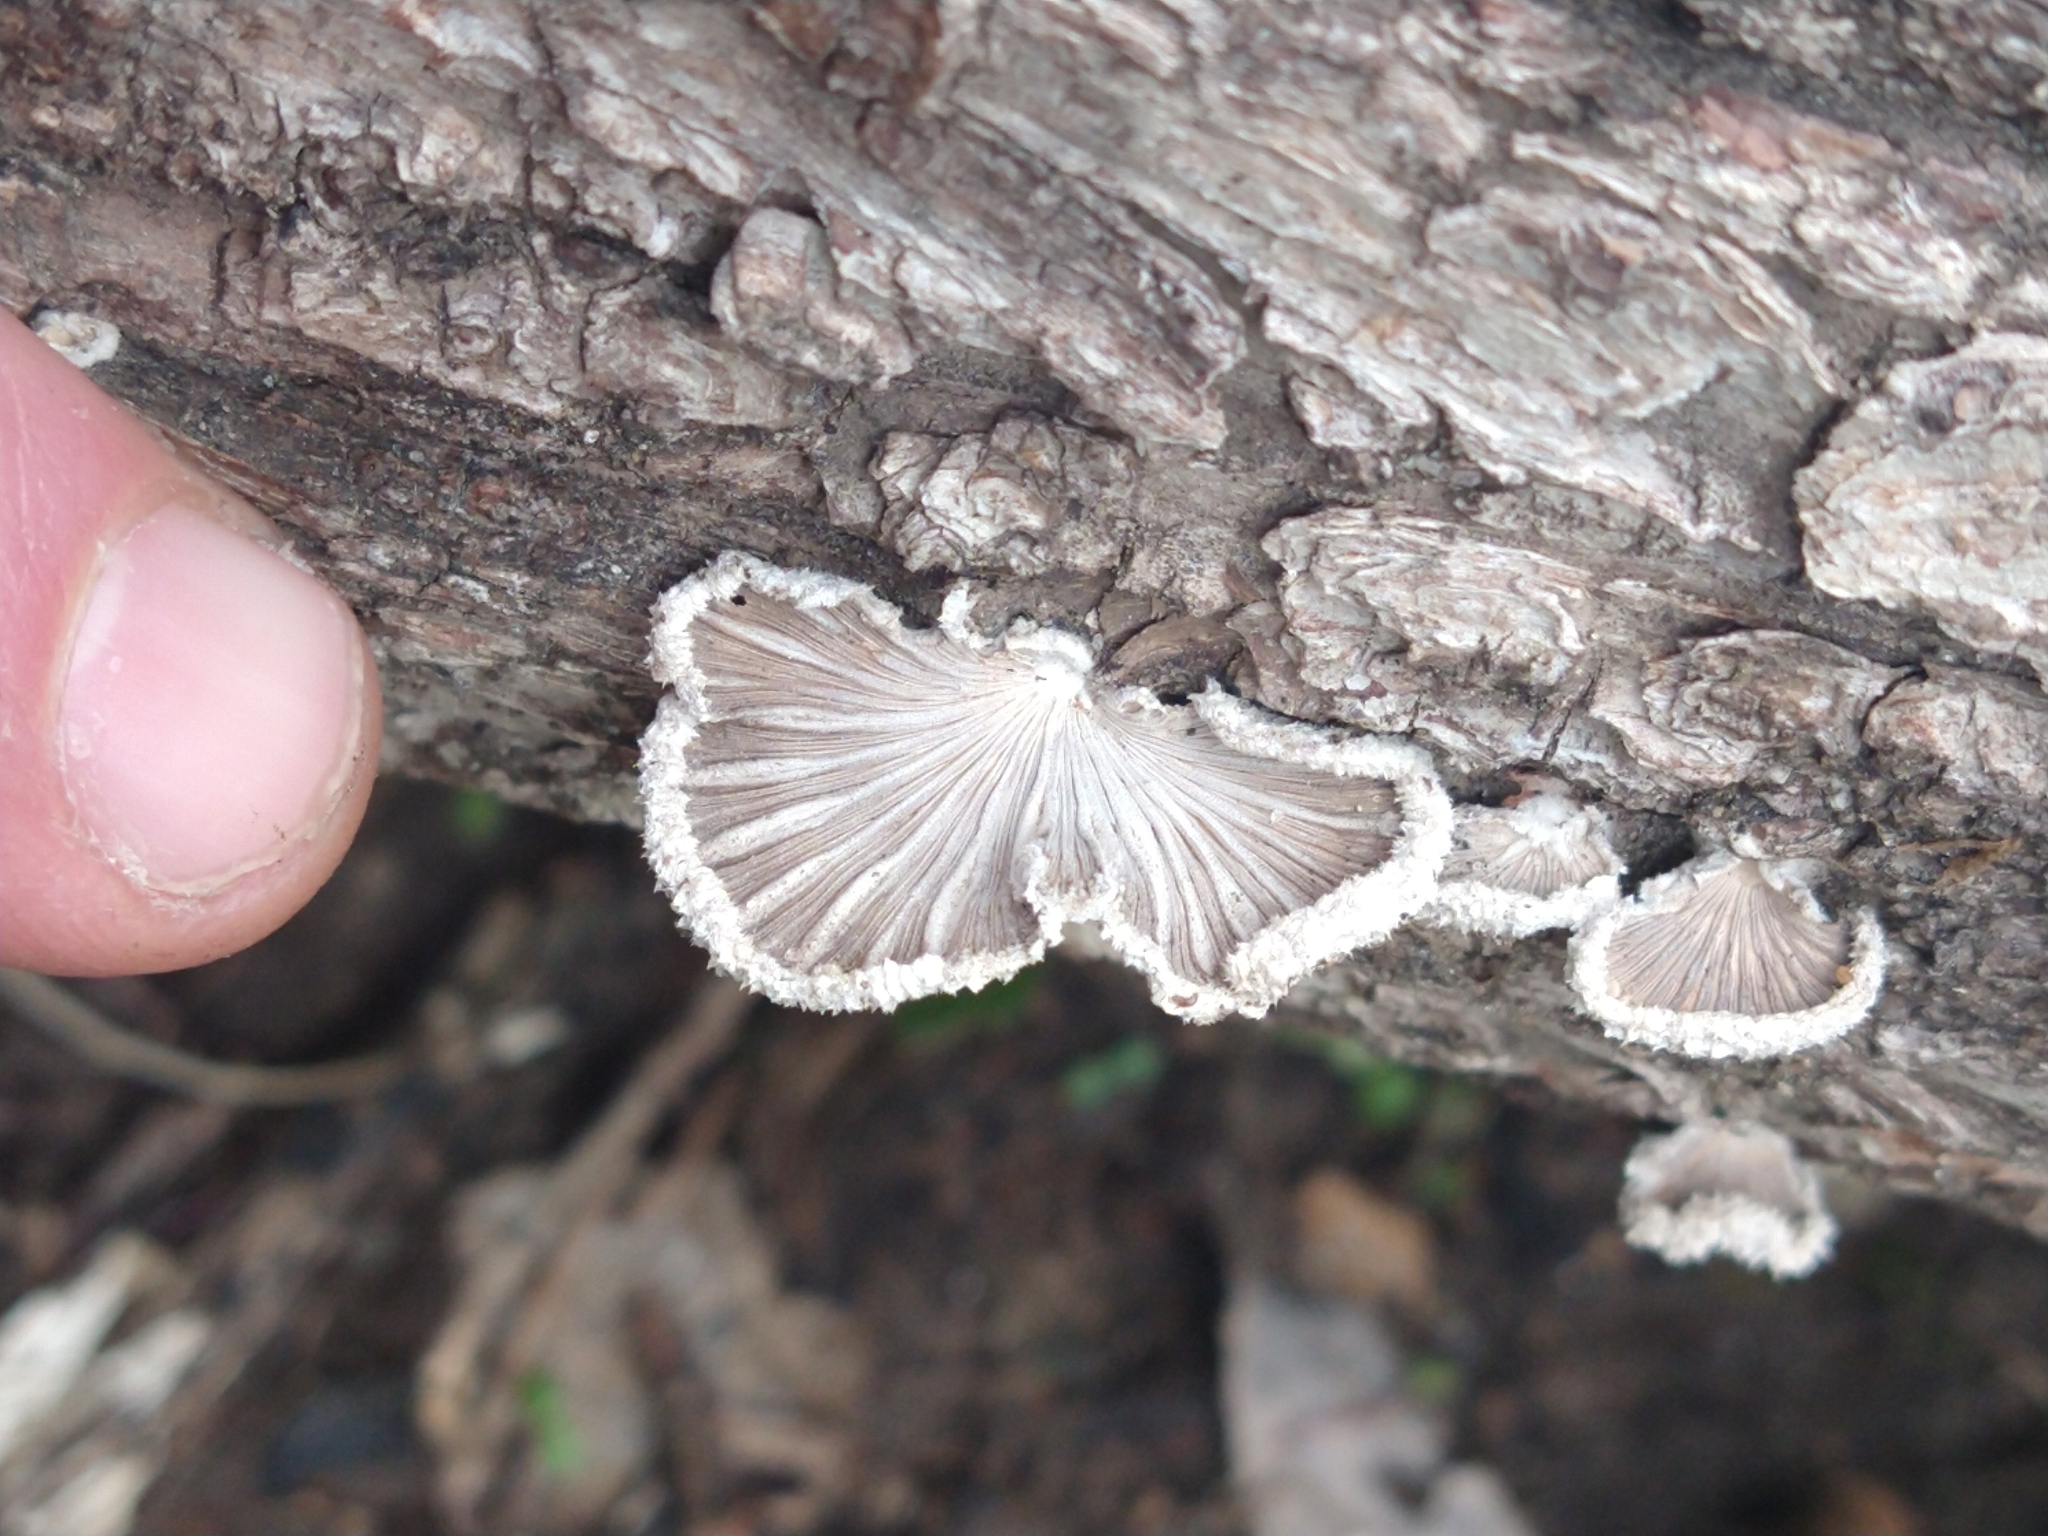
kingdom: Fungi
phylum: Basidiomycota
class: Agaricomycetes
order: Agaricales
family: Schizophyllaceae
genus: Schizophyllum
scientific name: Schizophyllum commune
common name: Common porecrust
